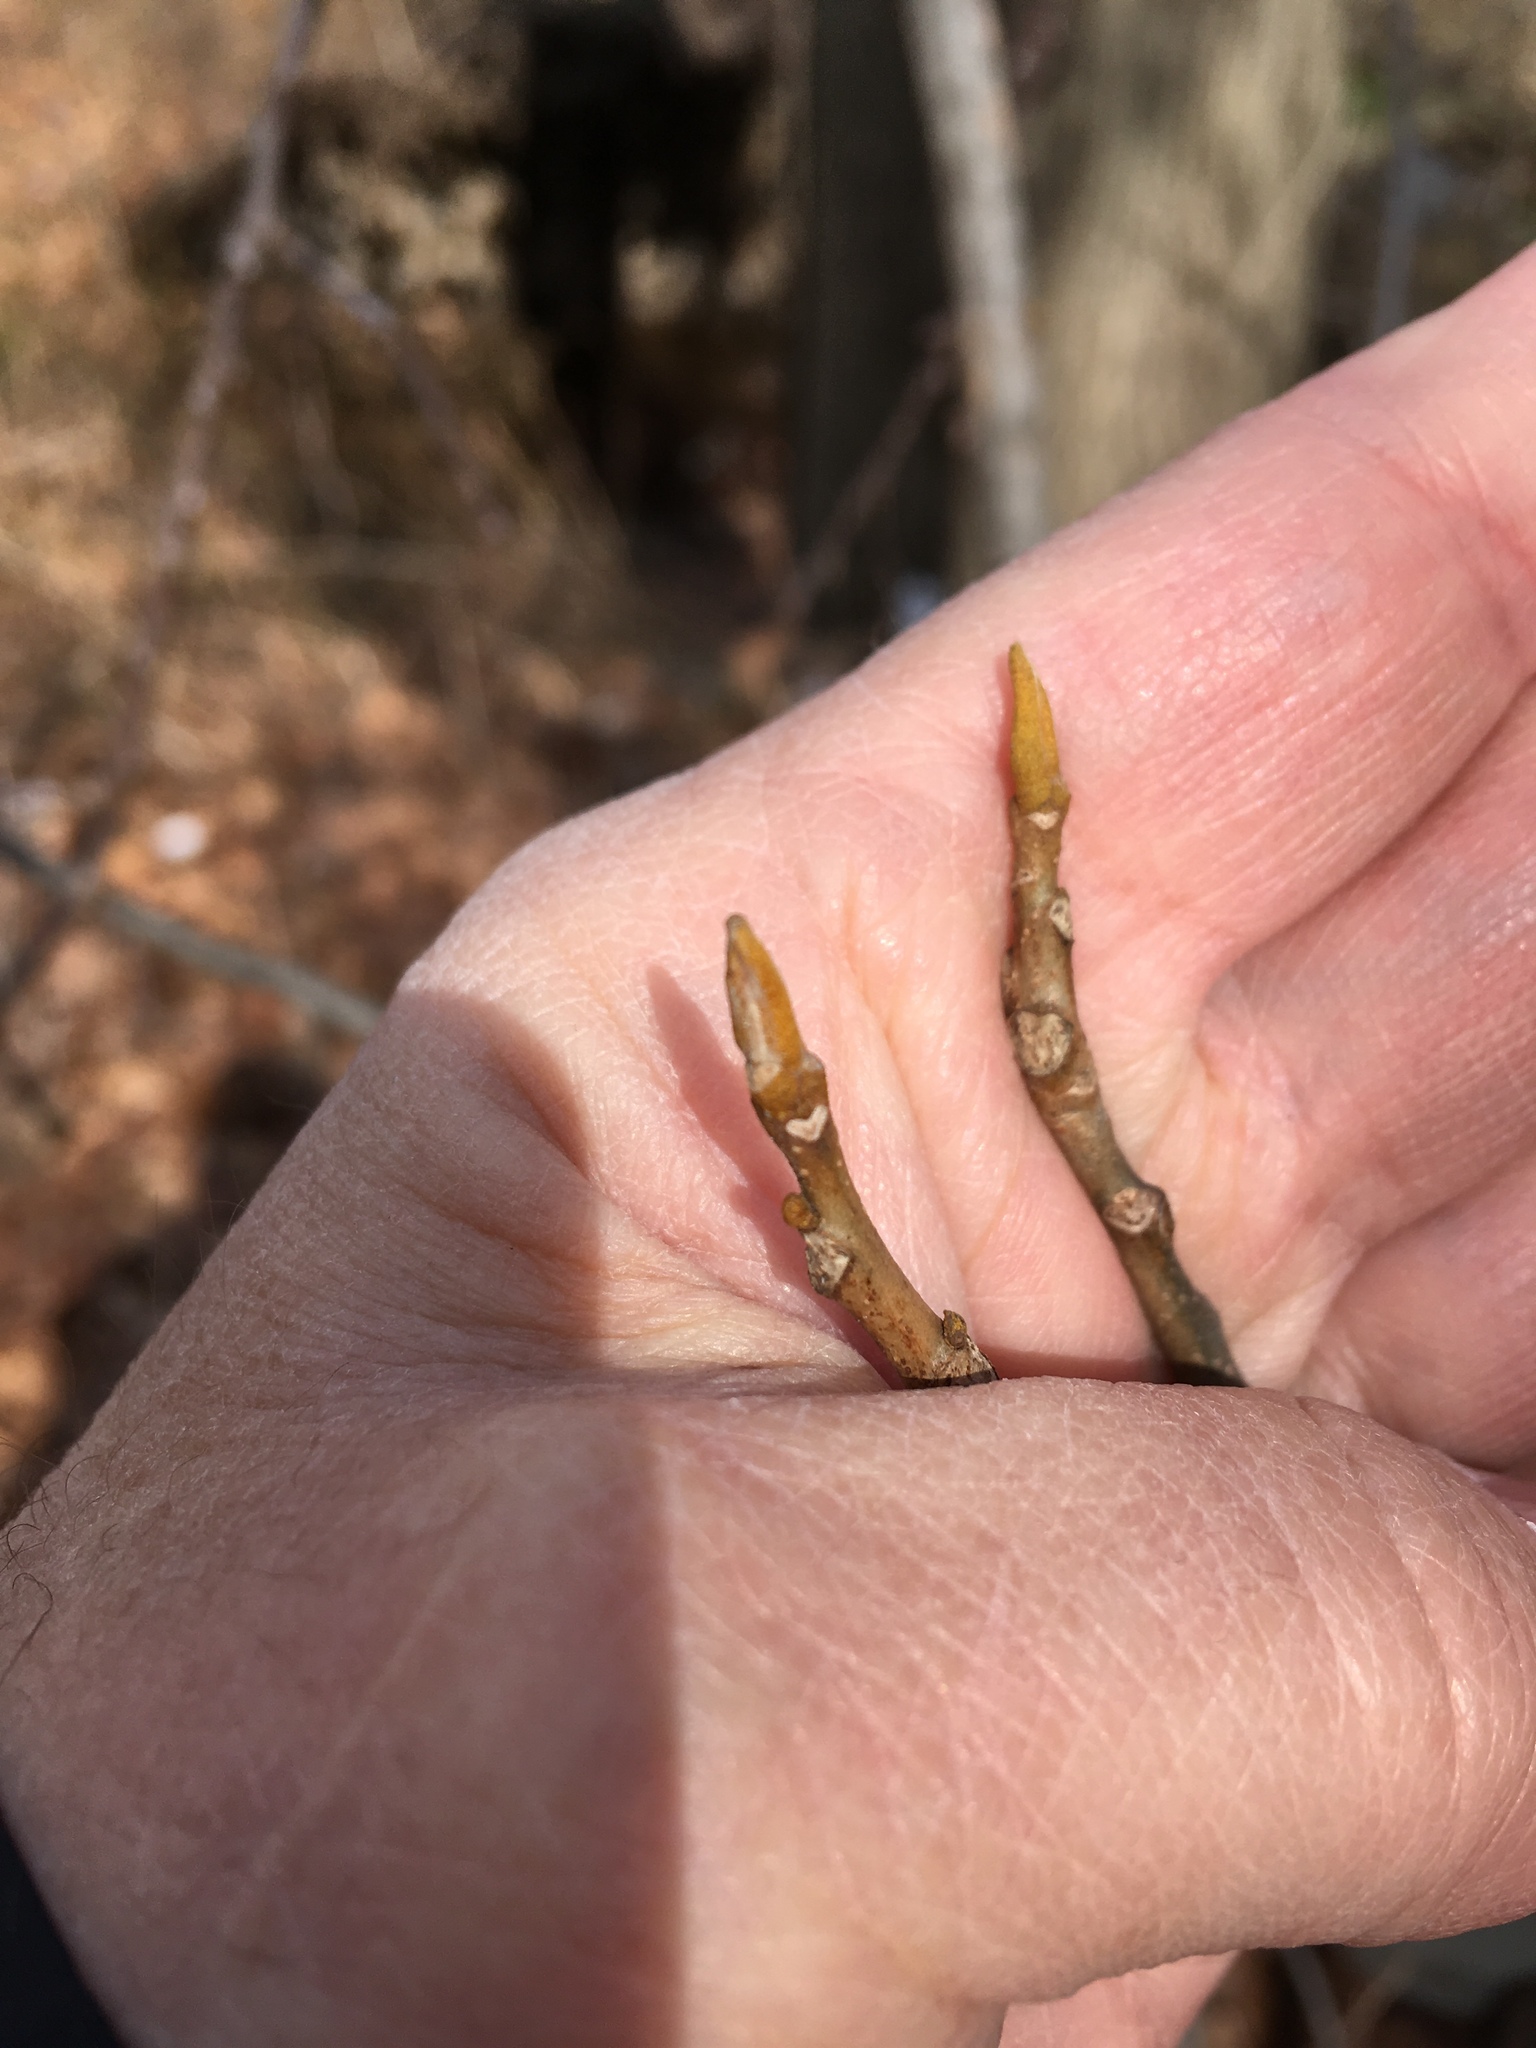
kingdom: Plantae
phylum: Tracheophyta
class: Magnoliopsida
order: Fagales
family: Juglandaceae
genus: Carya
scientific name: Carya cordiformis
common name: Bitternut hickory
